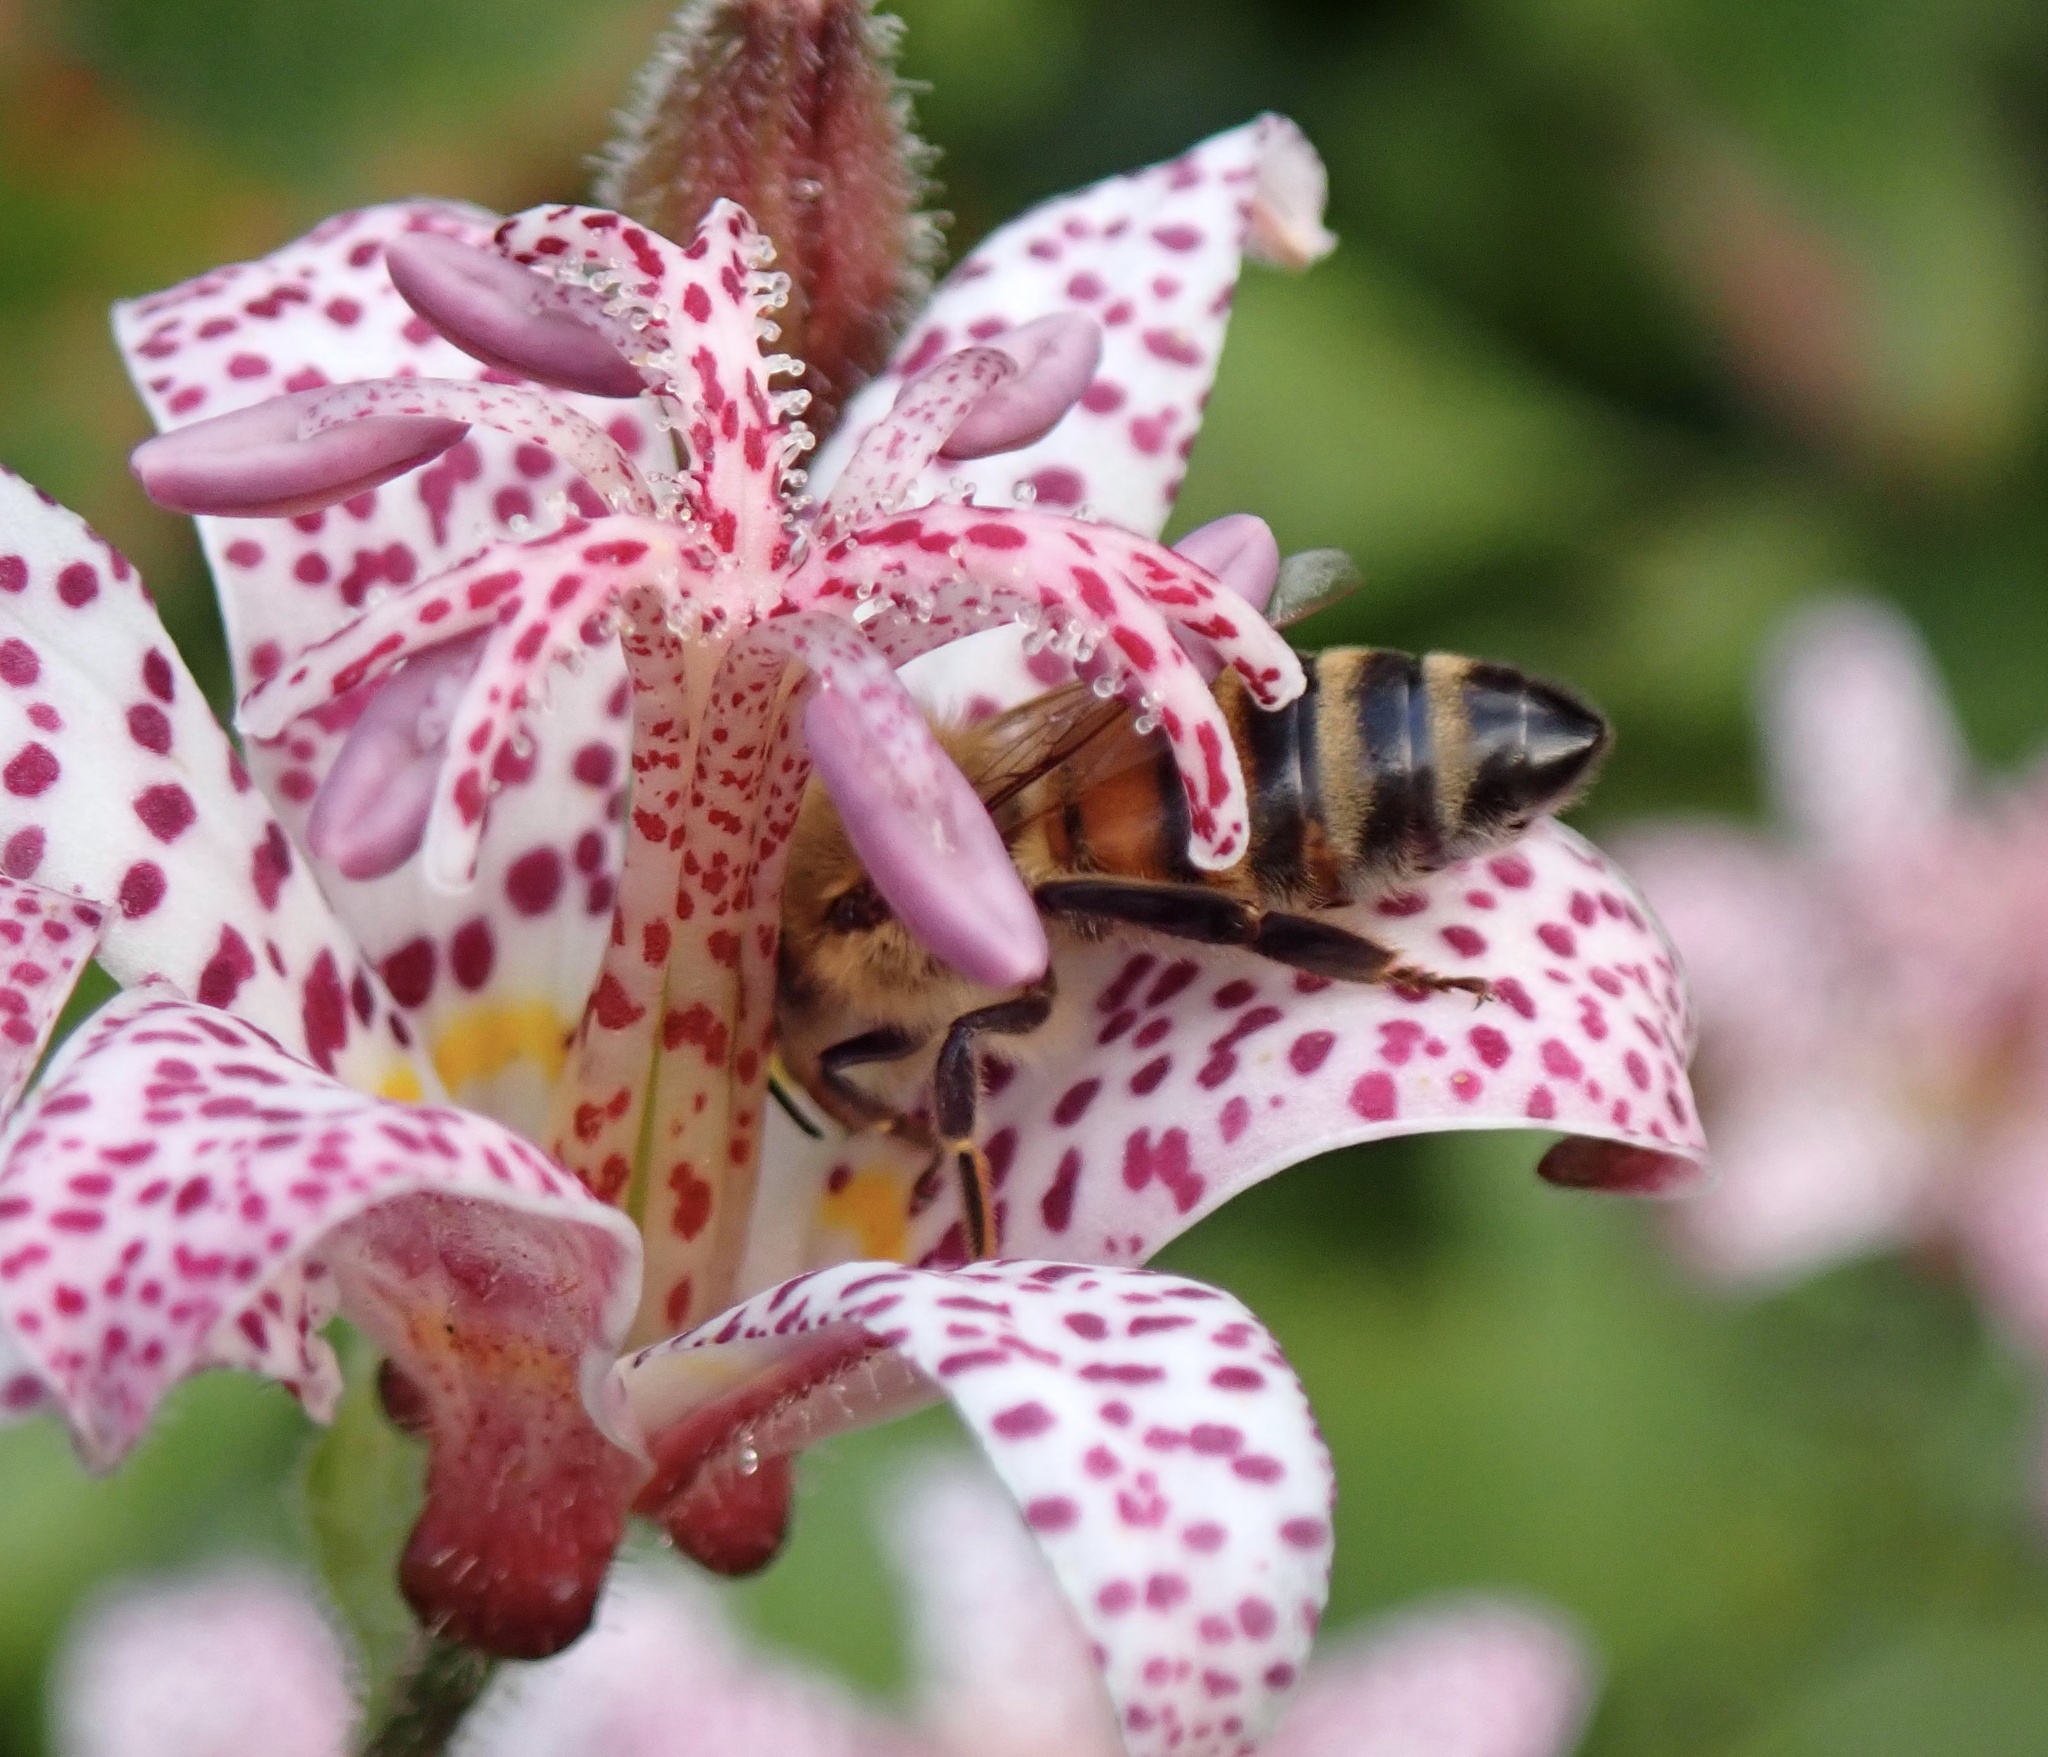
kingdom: Animalia
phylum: Arthropoda
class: Insecta
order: Hymenoptera
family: Apidae
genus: Apis
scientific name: Apis mellifera
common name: Honey bee
